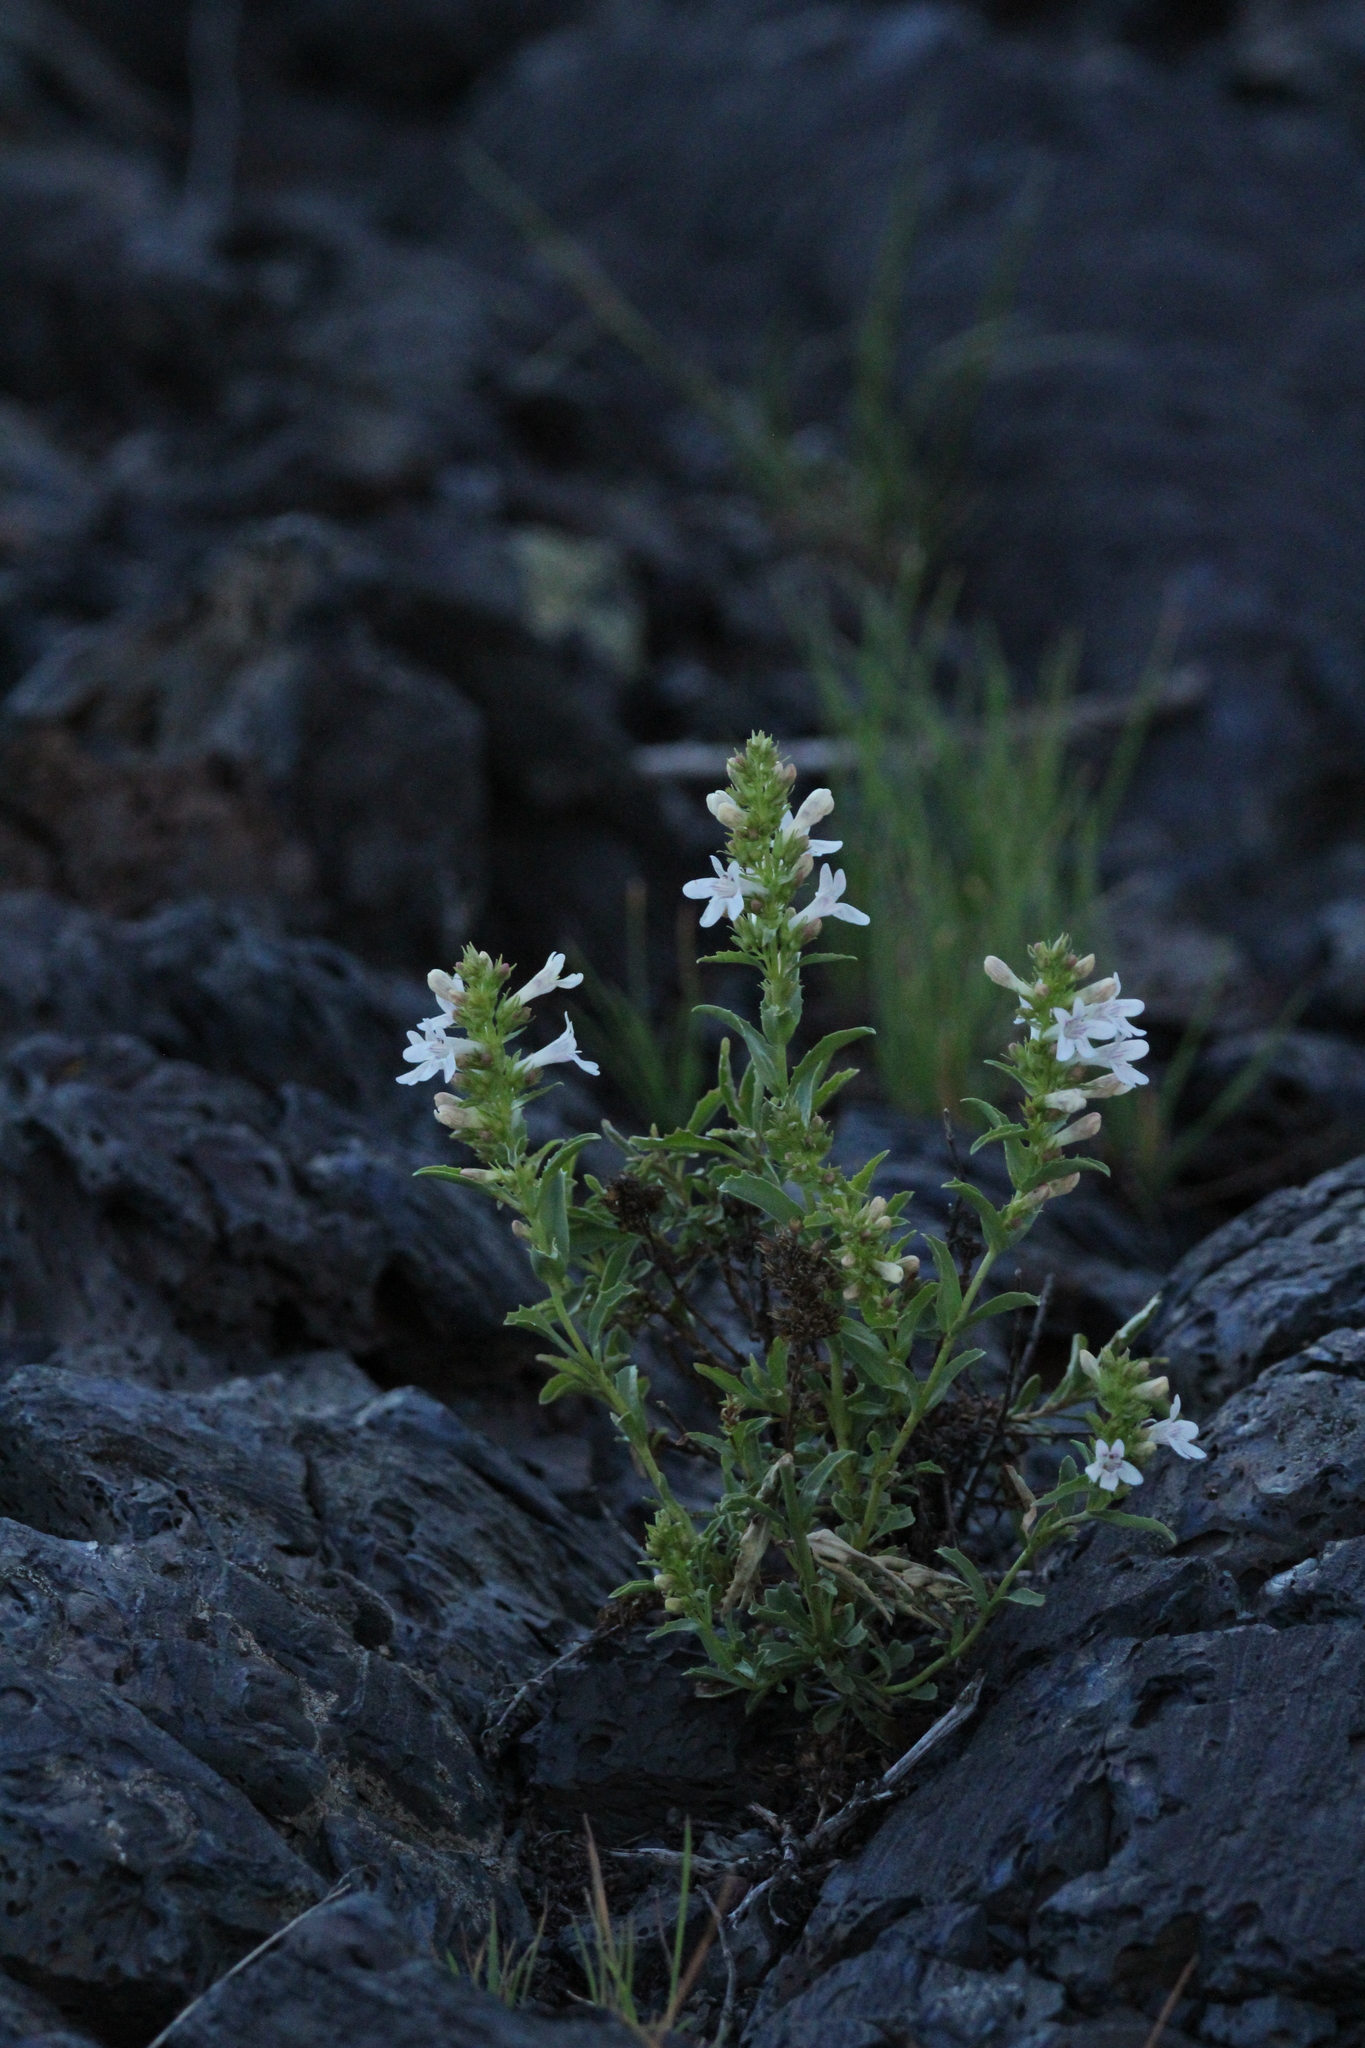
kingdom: Plantae
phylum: Tracheophyta
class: Magnoliopsida
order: Lamiales
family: Plantaginaceae
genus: Penstemon
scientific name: Penstemon deustus
